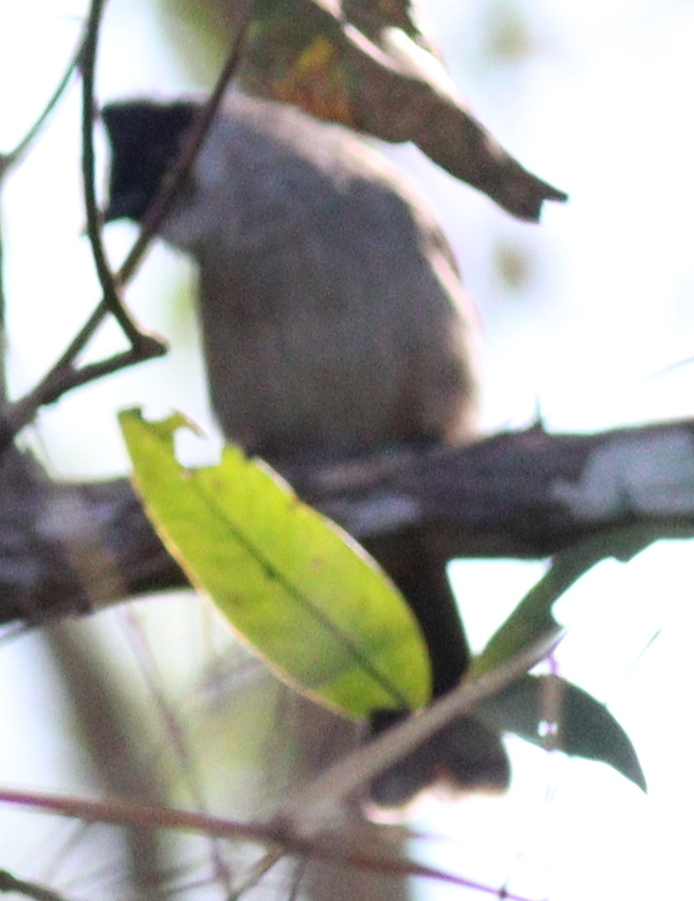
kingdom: Animalia
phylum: Chordata
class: Aves
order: Passeriformes
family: Pycnonotidae
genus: Pycnonotus
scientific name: Pycnonotus aurigaster
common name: Sooty-headed bulbul
